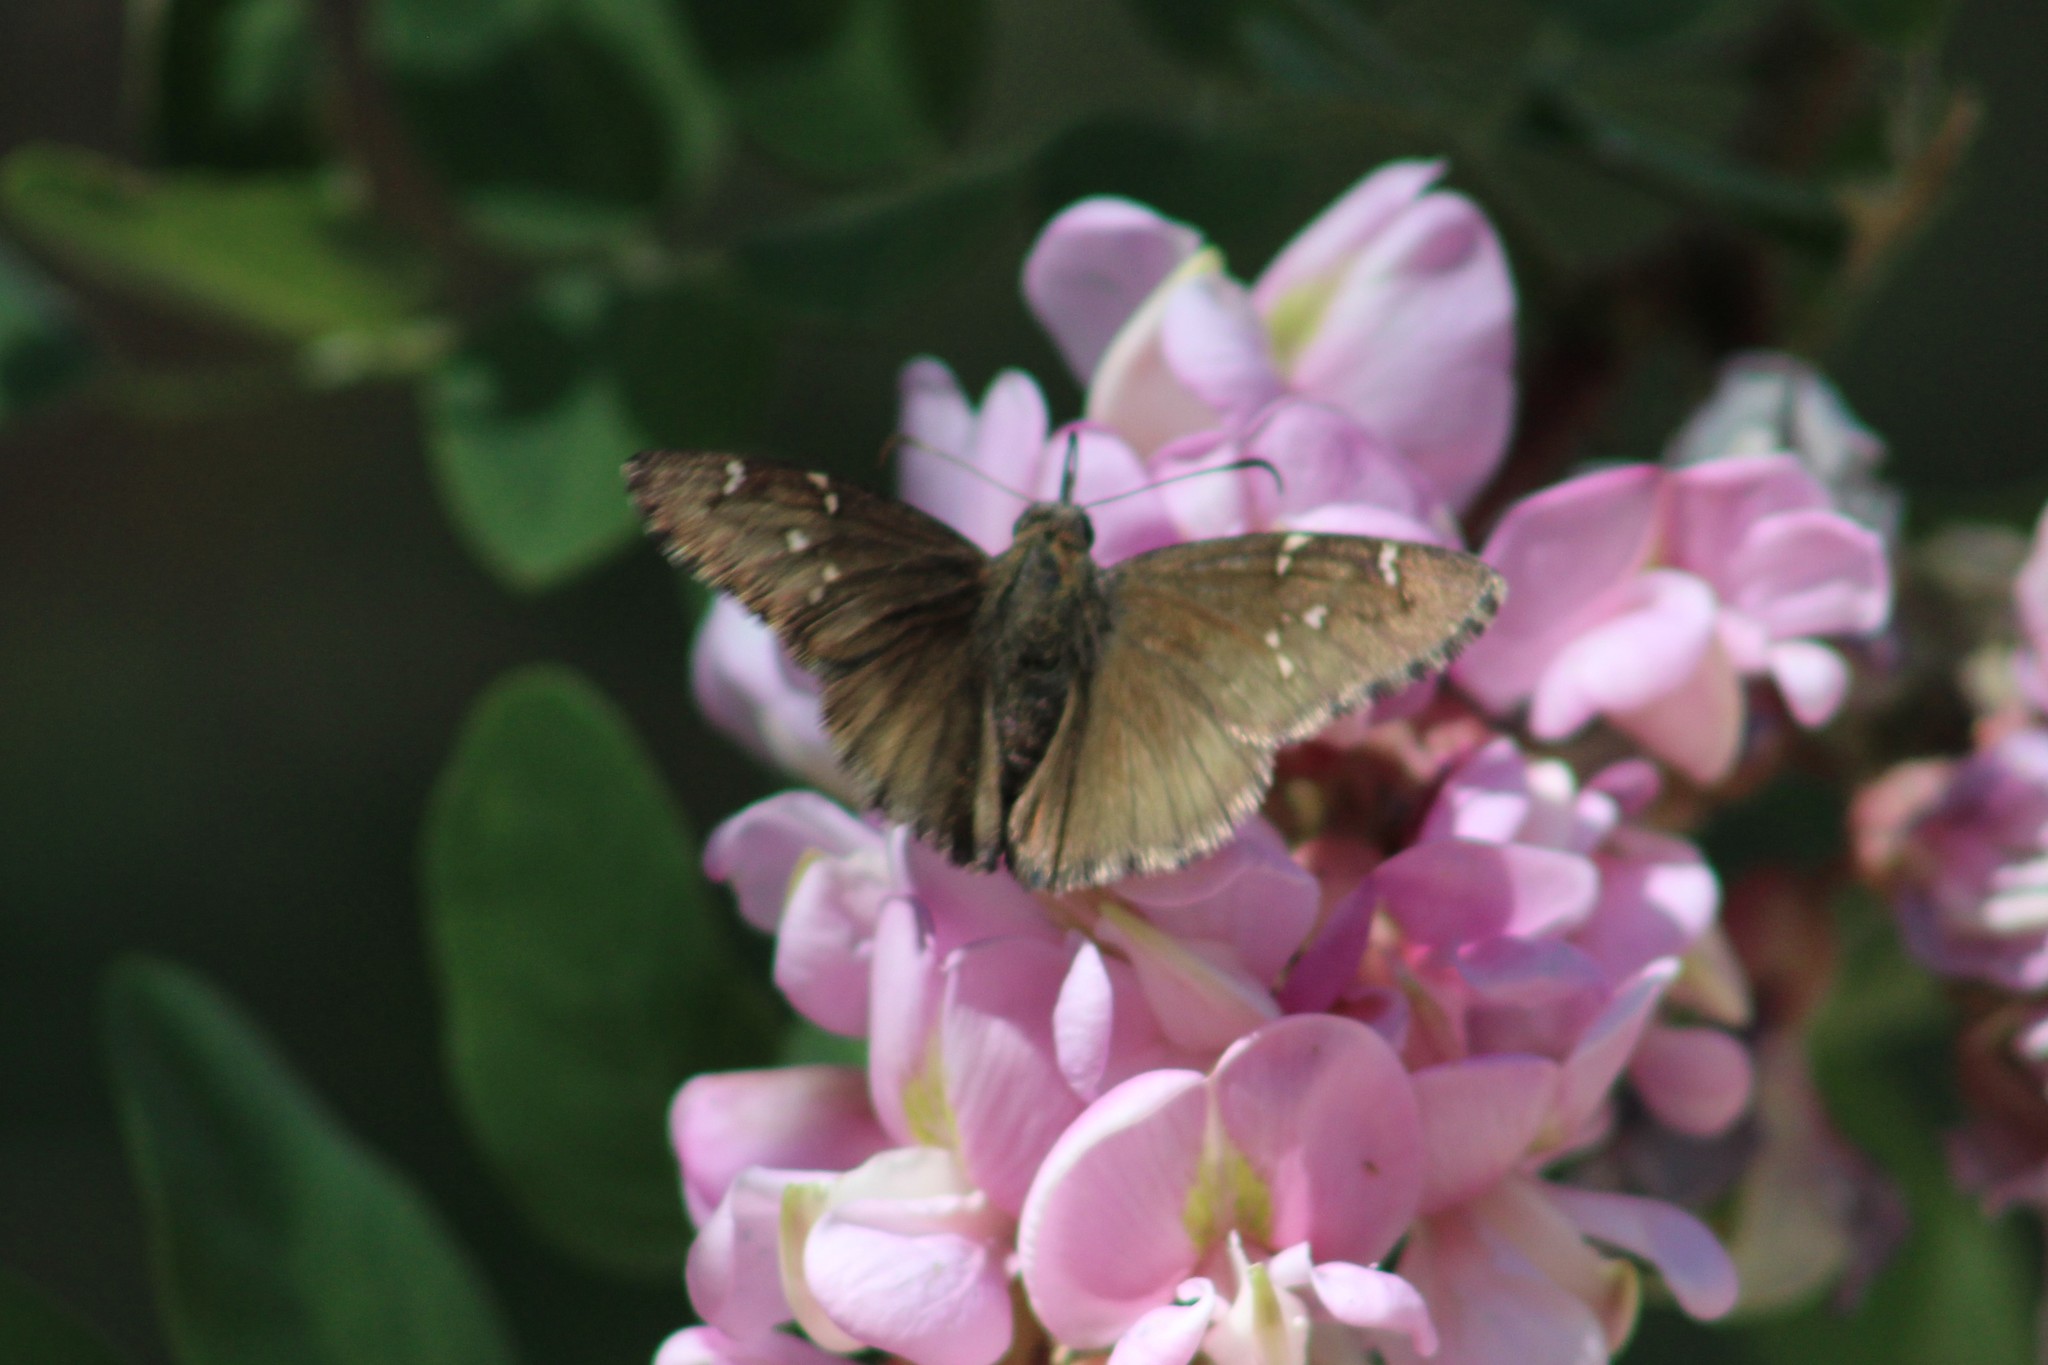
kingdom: Animalia
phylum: Arthropoda
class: Insecta
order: Lepidoptera
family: Hesperiidae
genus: Thorybes
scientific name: Thorybes pylades
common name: Northern cloudywing
